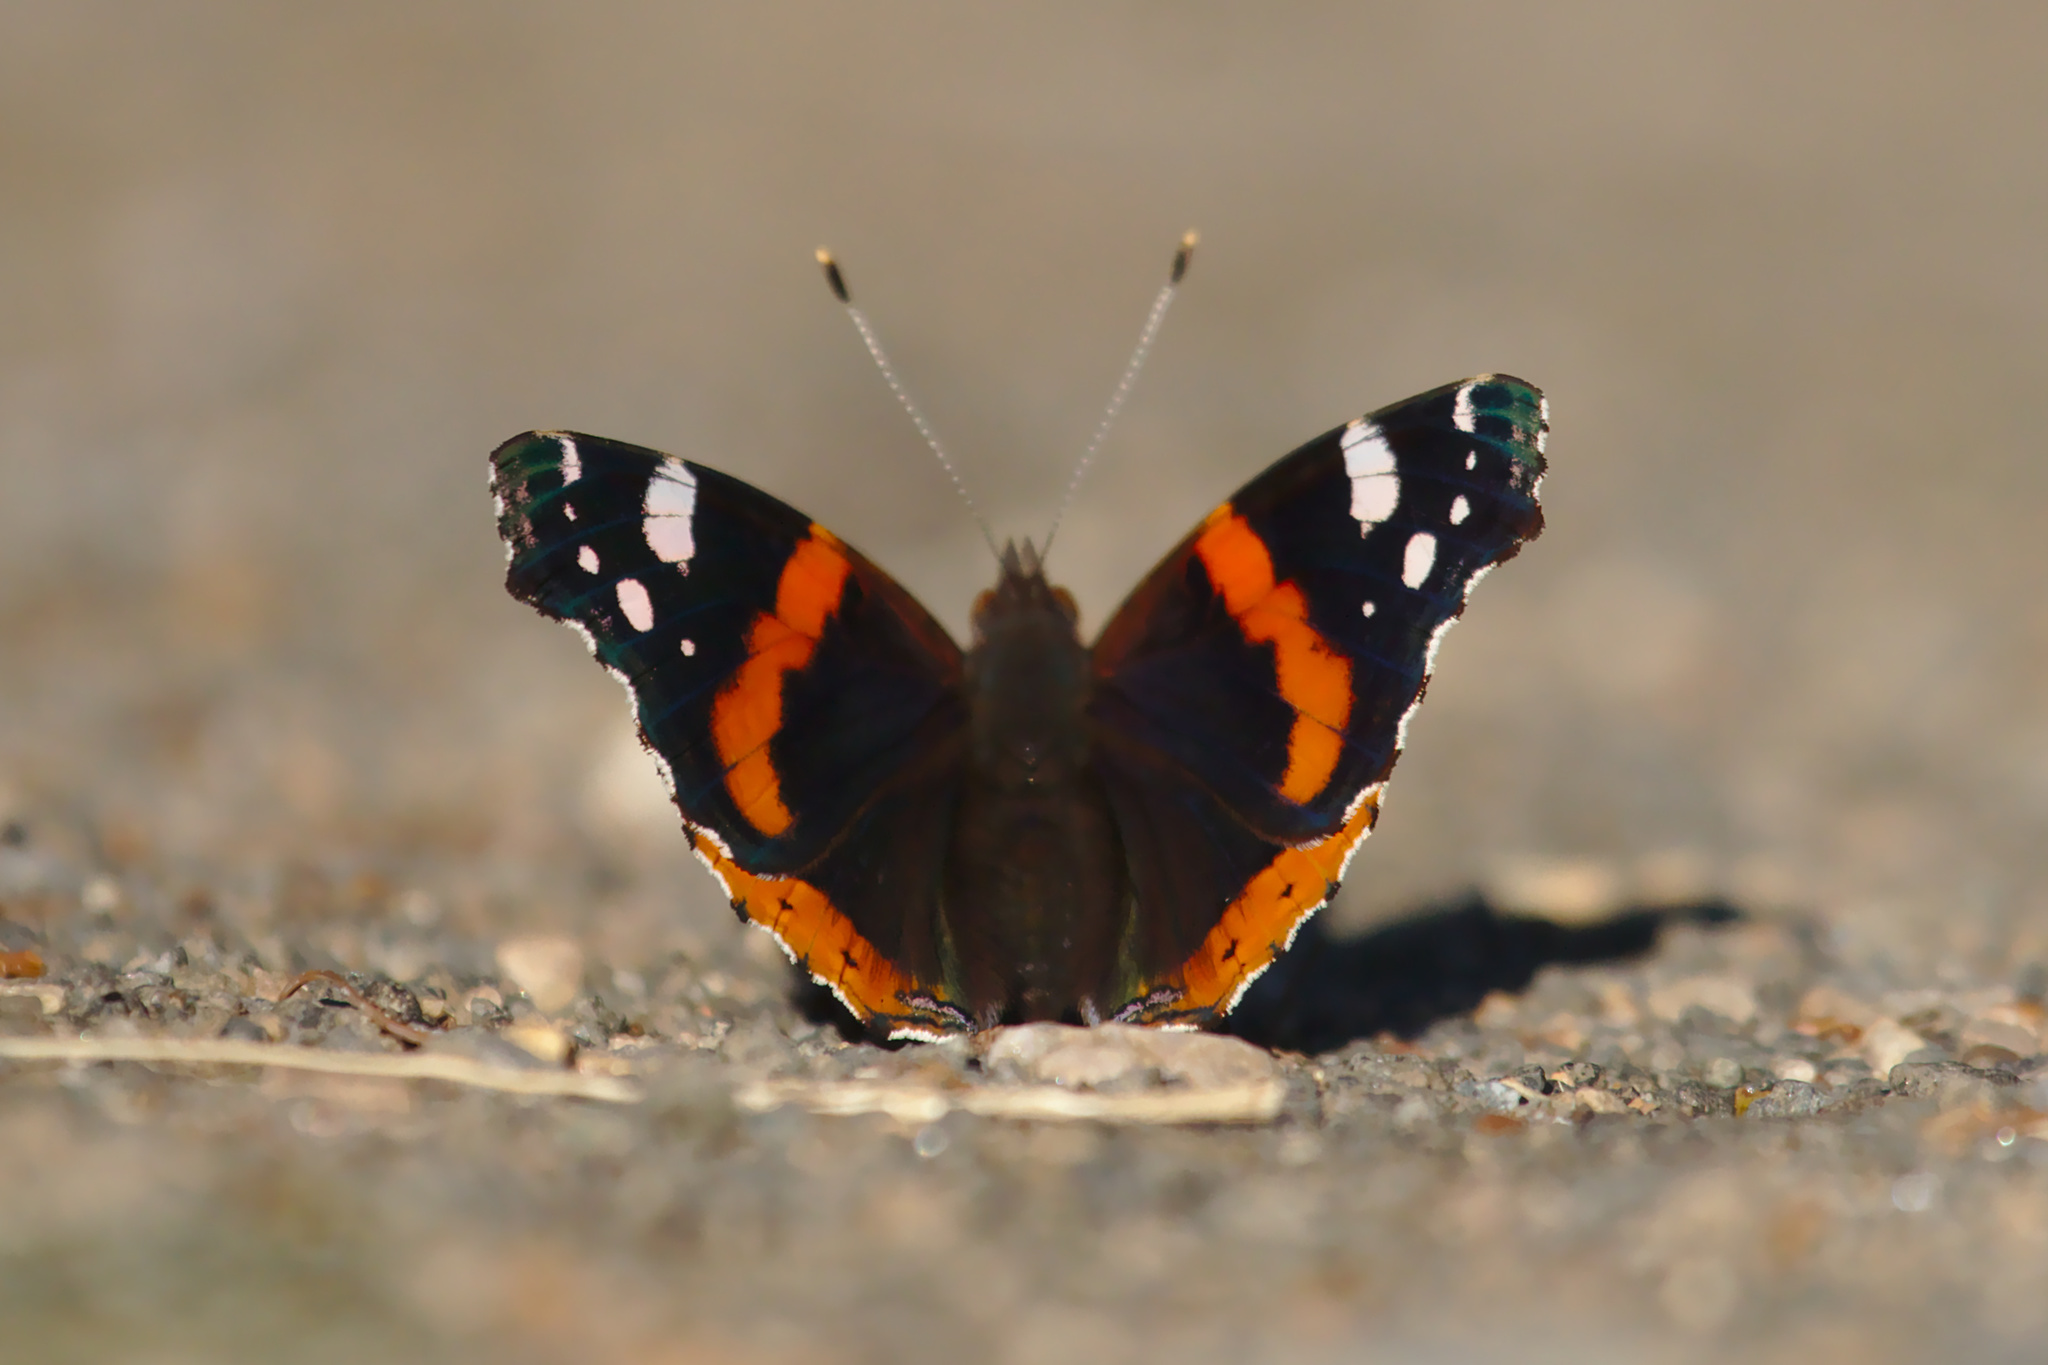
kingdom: Animalia
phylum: Arthropoda
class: Insecta
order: Lepidoptera
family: Nymphalidae
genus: Vanessa
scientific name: Vanessa atalanta
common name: Red admiral
